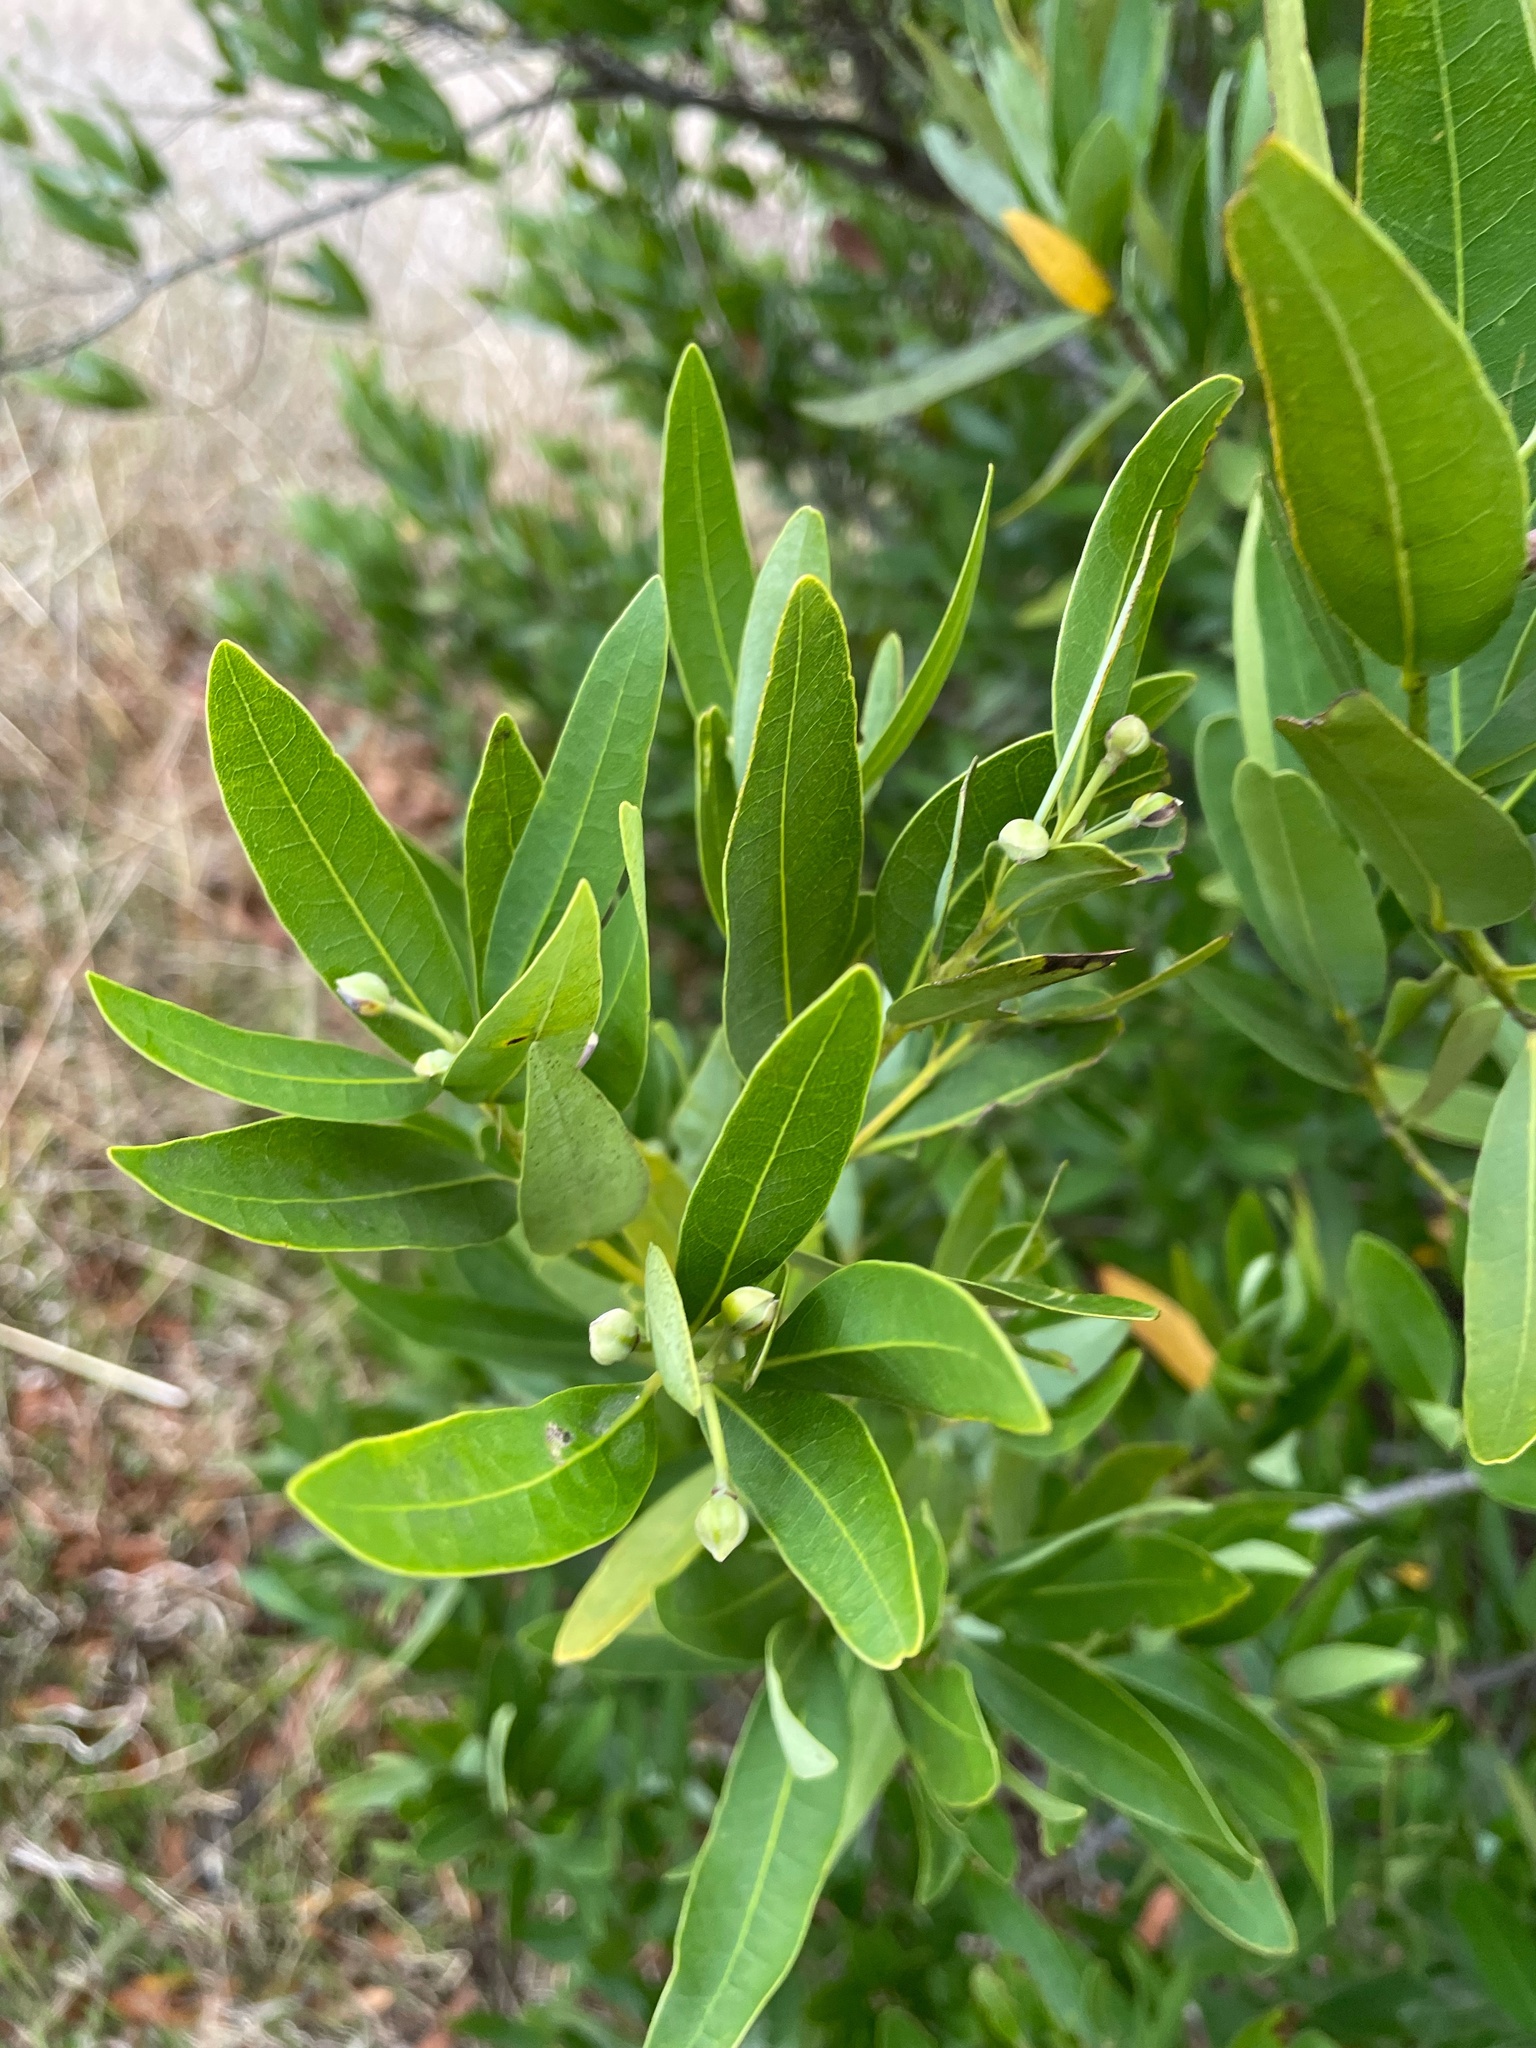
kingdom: Plantae
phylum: Tracheophyta
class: Magnoliopsida
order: Laurales
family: Lauraceae
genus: Umbellularia
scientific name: Umbellularia californica
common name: California bay
